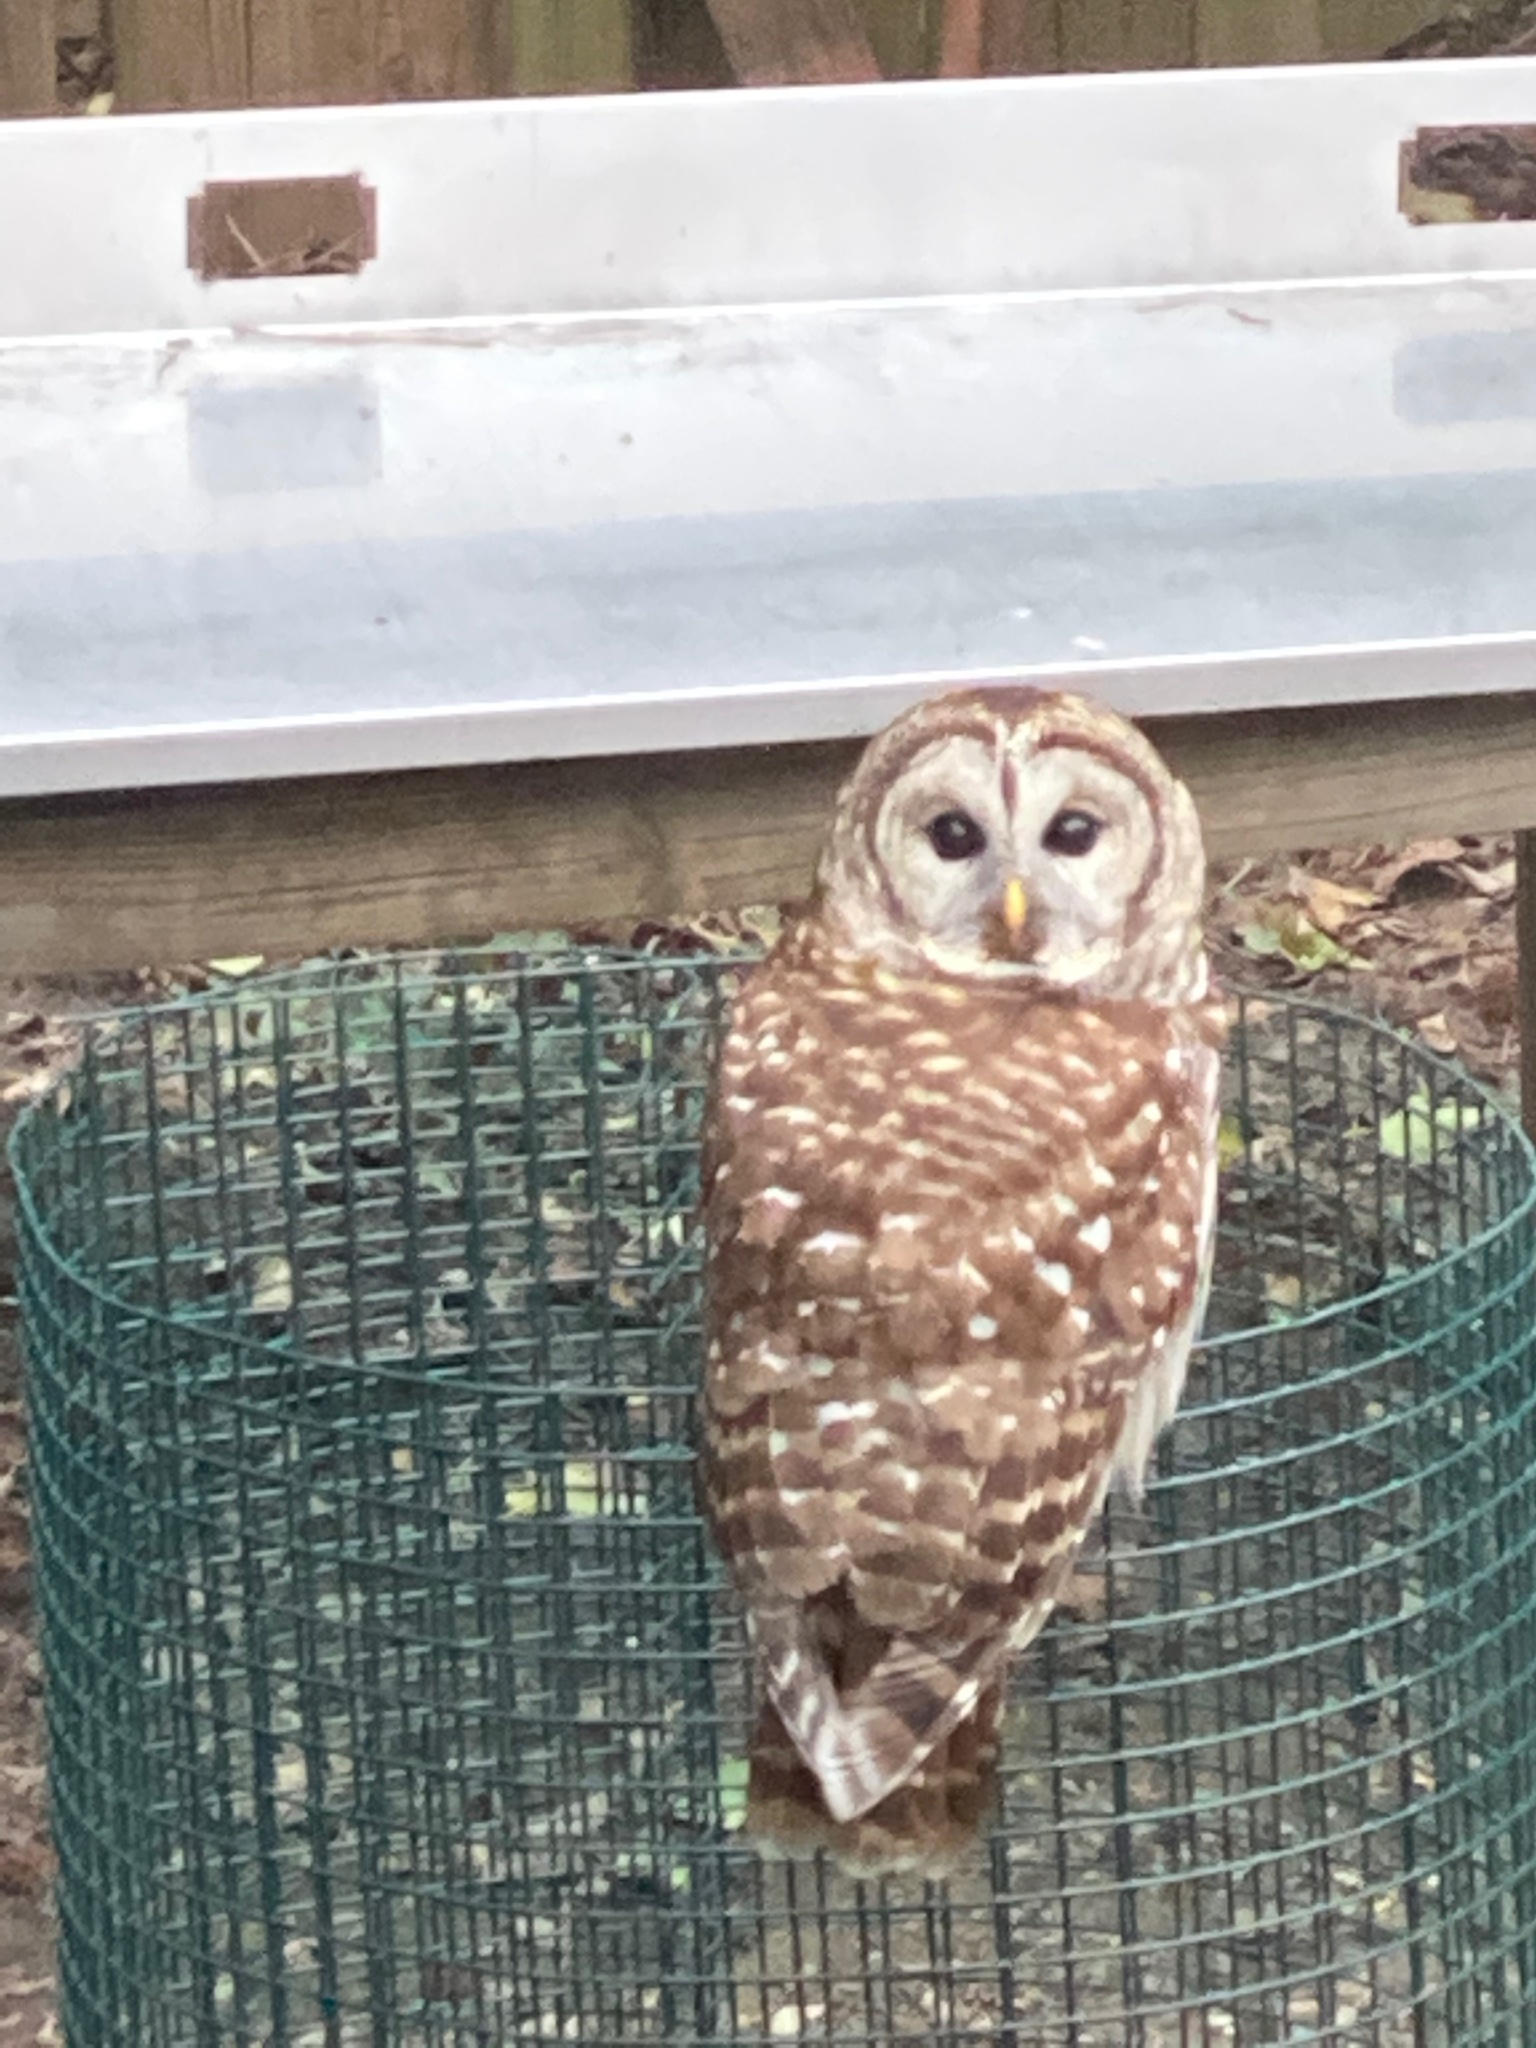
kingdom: Animalia
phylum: Chordata
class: Aves
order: Strigiformes
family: Strigidae
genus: Strix
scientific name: Strix varia
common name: Barred owl
